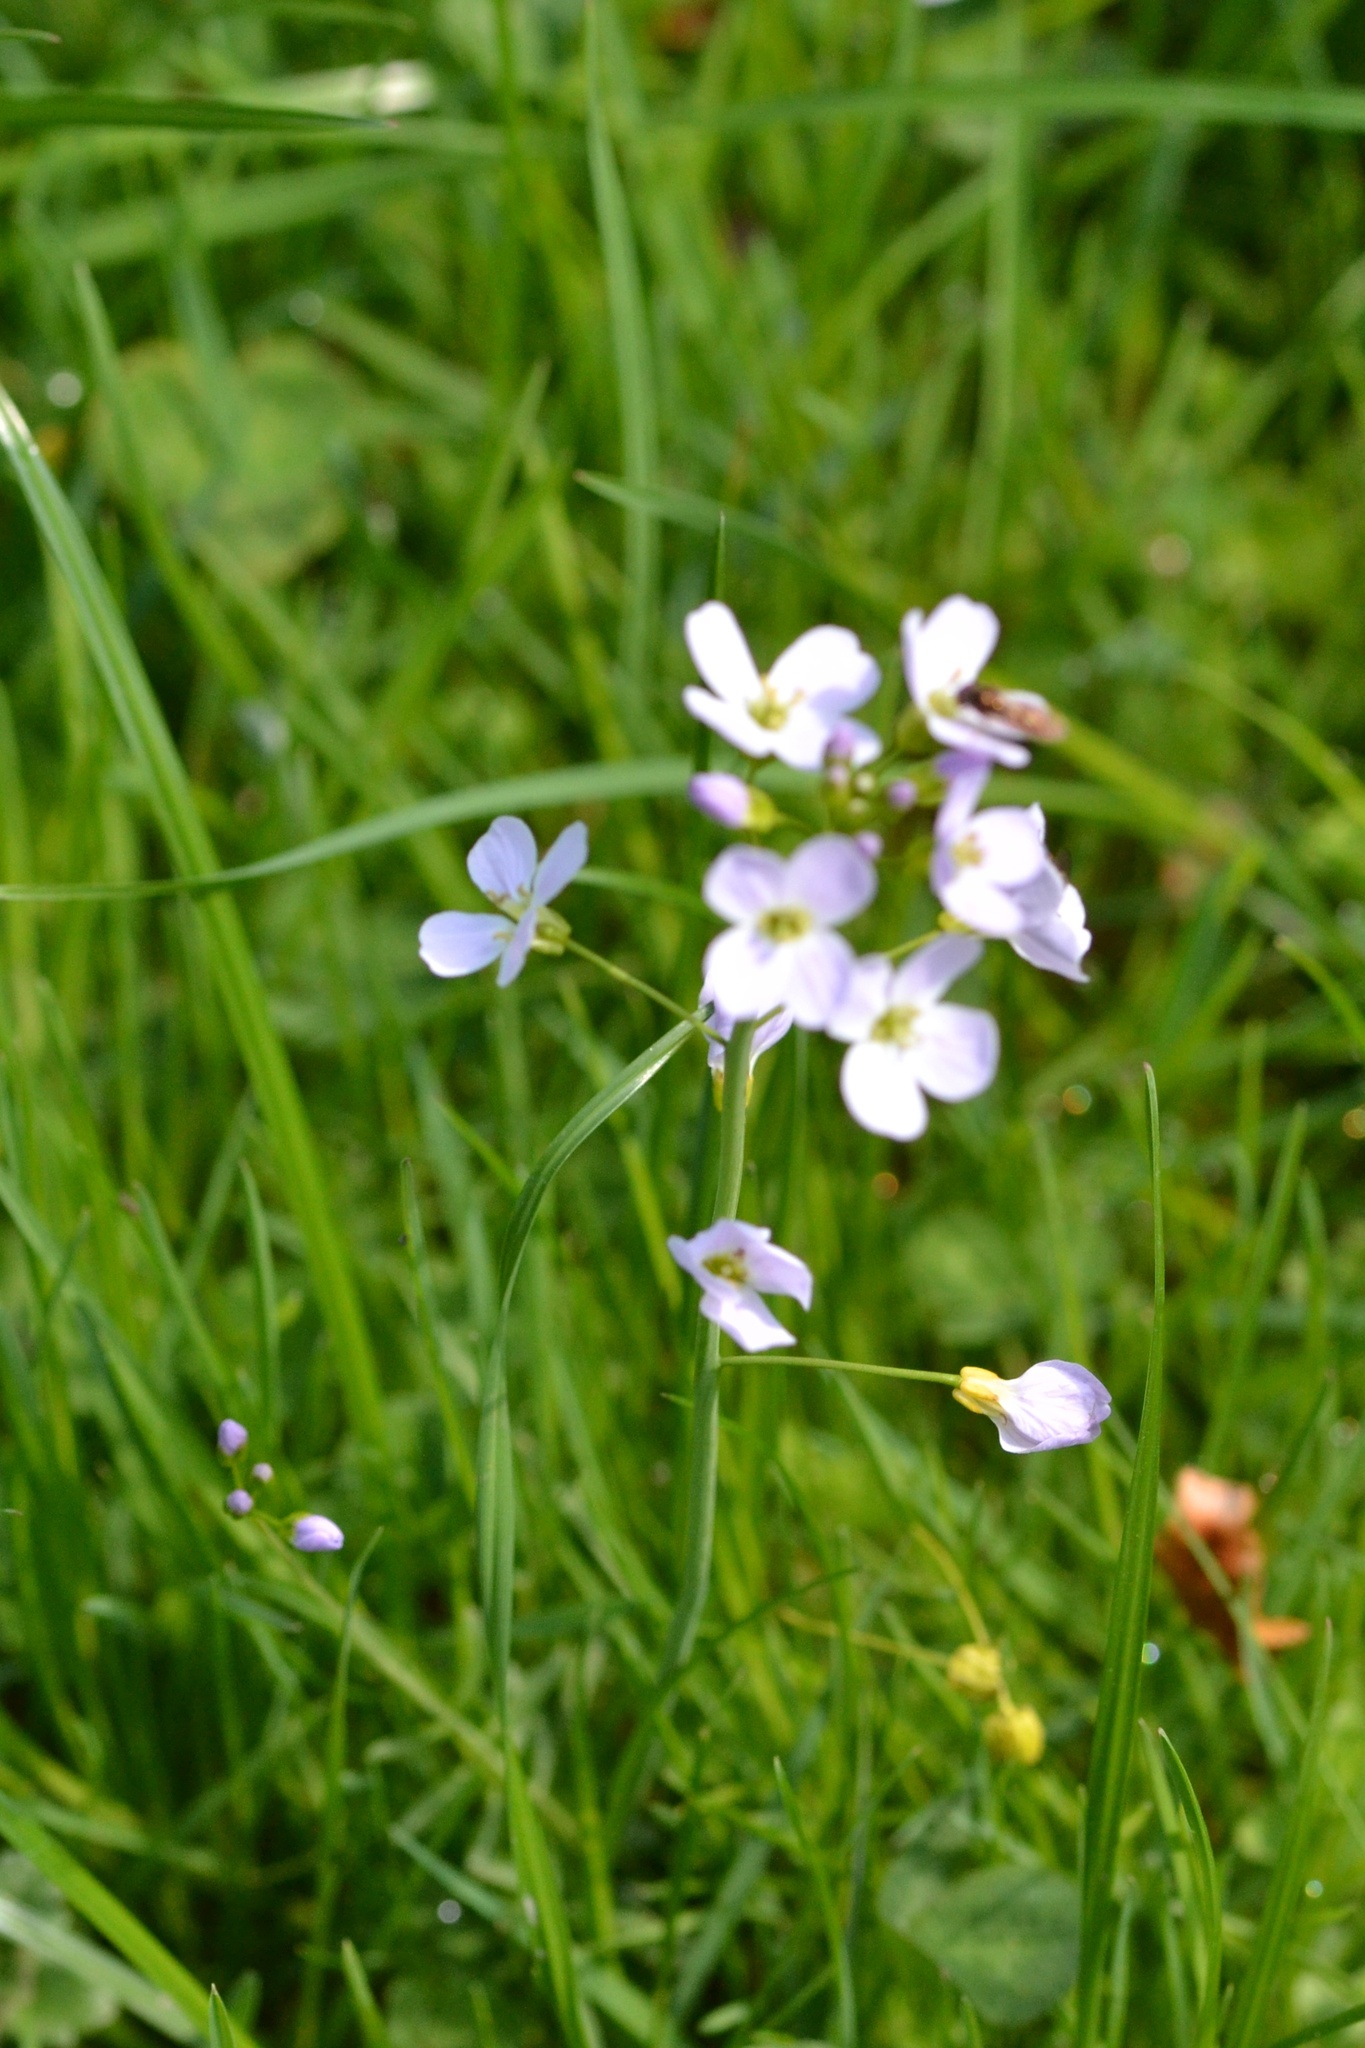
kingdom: Plantae
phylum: Tracheophyta
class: Magnoliopsida
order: Brassicales
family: Brassicaceae
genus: Cardamine
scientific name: Cardamine pratensis
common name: Cuckoo flower
